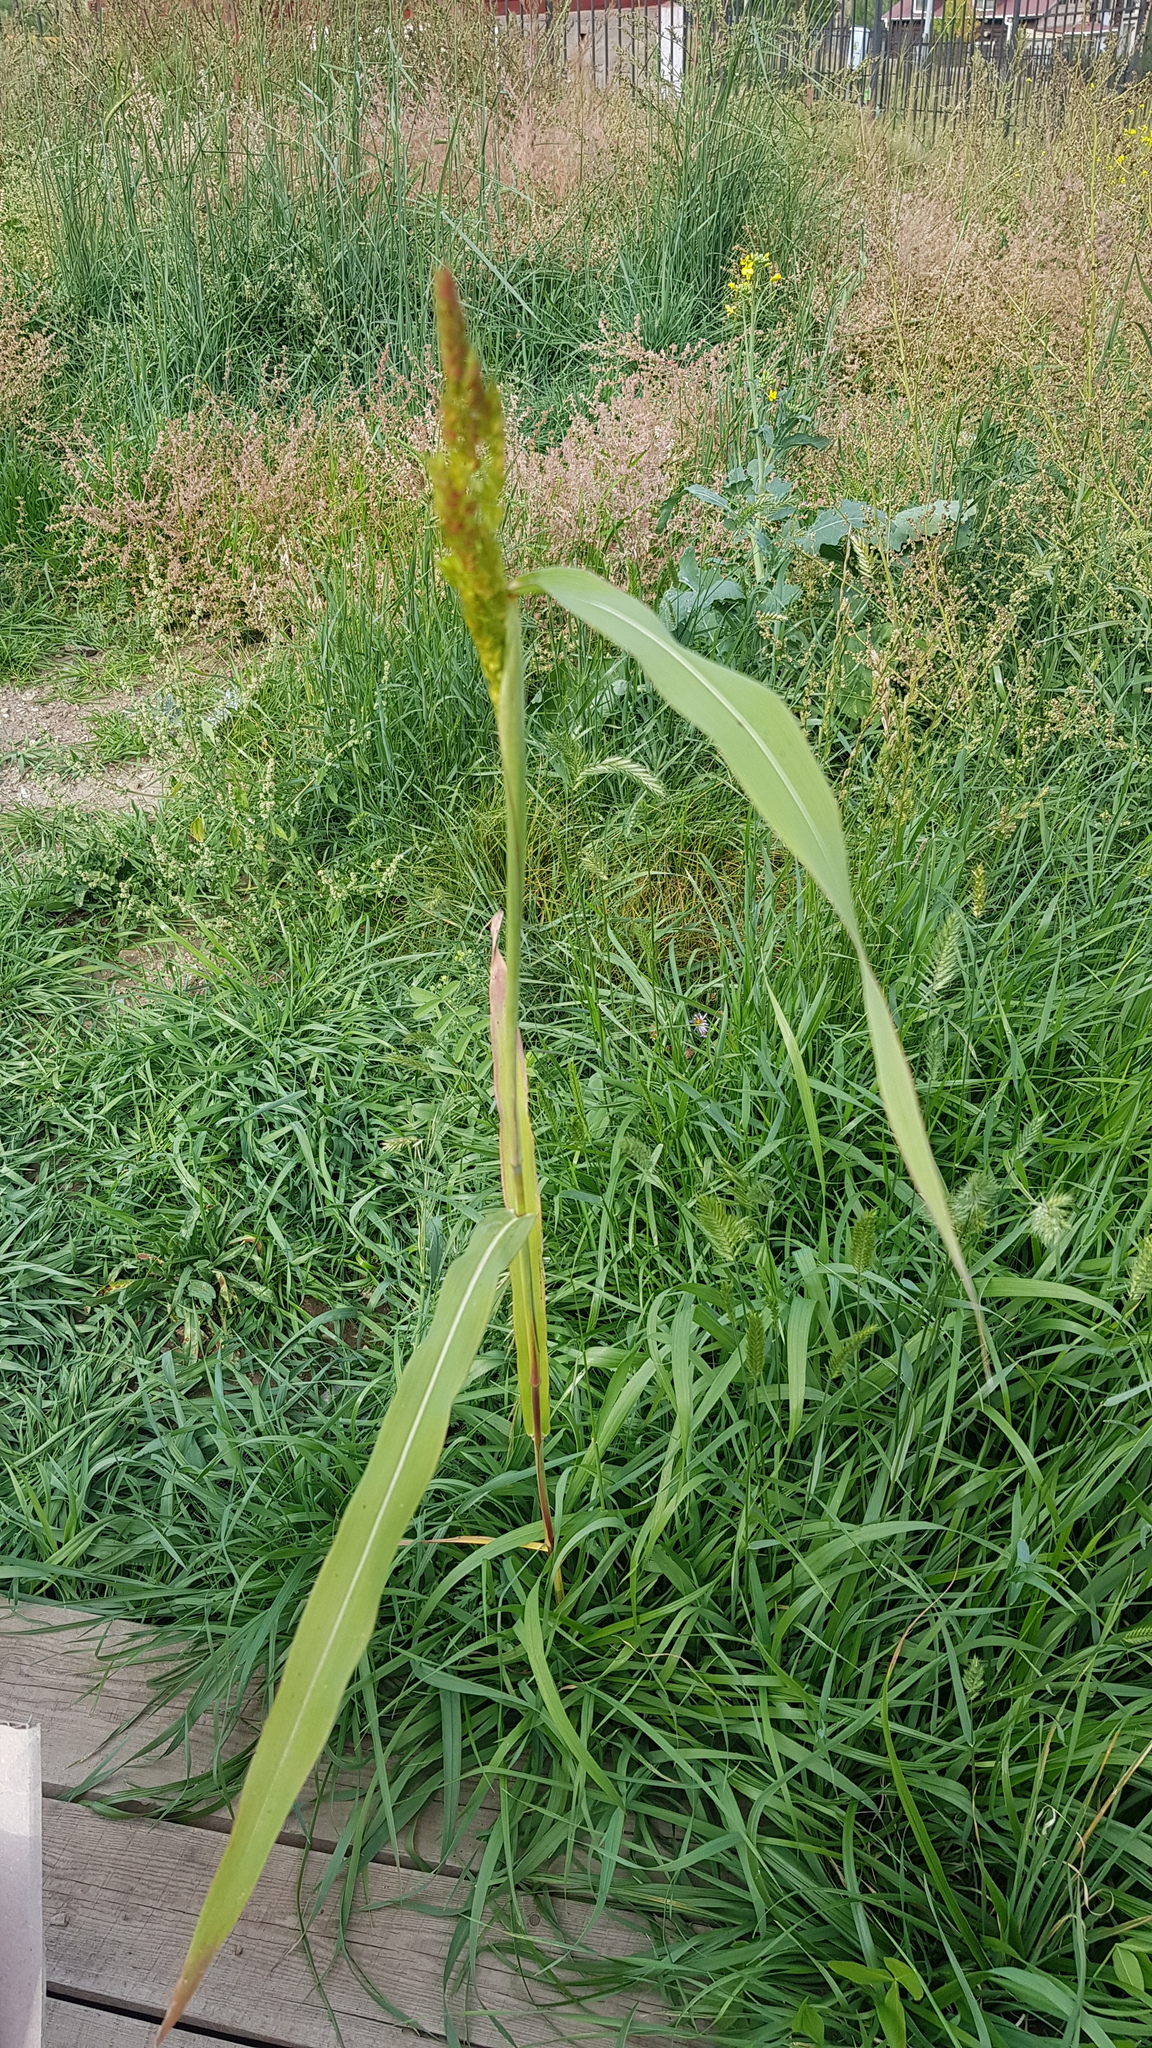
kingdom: Plantae
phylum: Tracheophyta
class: Liliopsida
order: Poales
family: Poaceae
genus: Echinochloa
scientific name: Echinochloa crus-galli
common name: Cockspur
